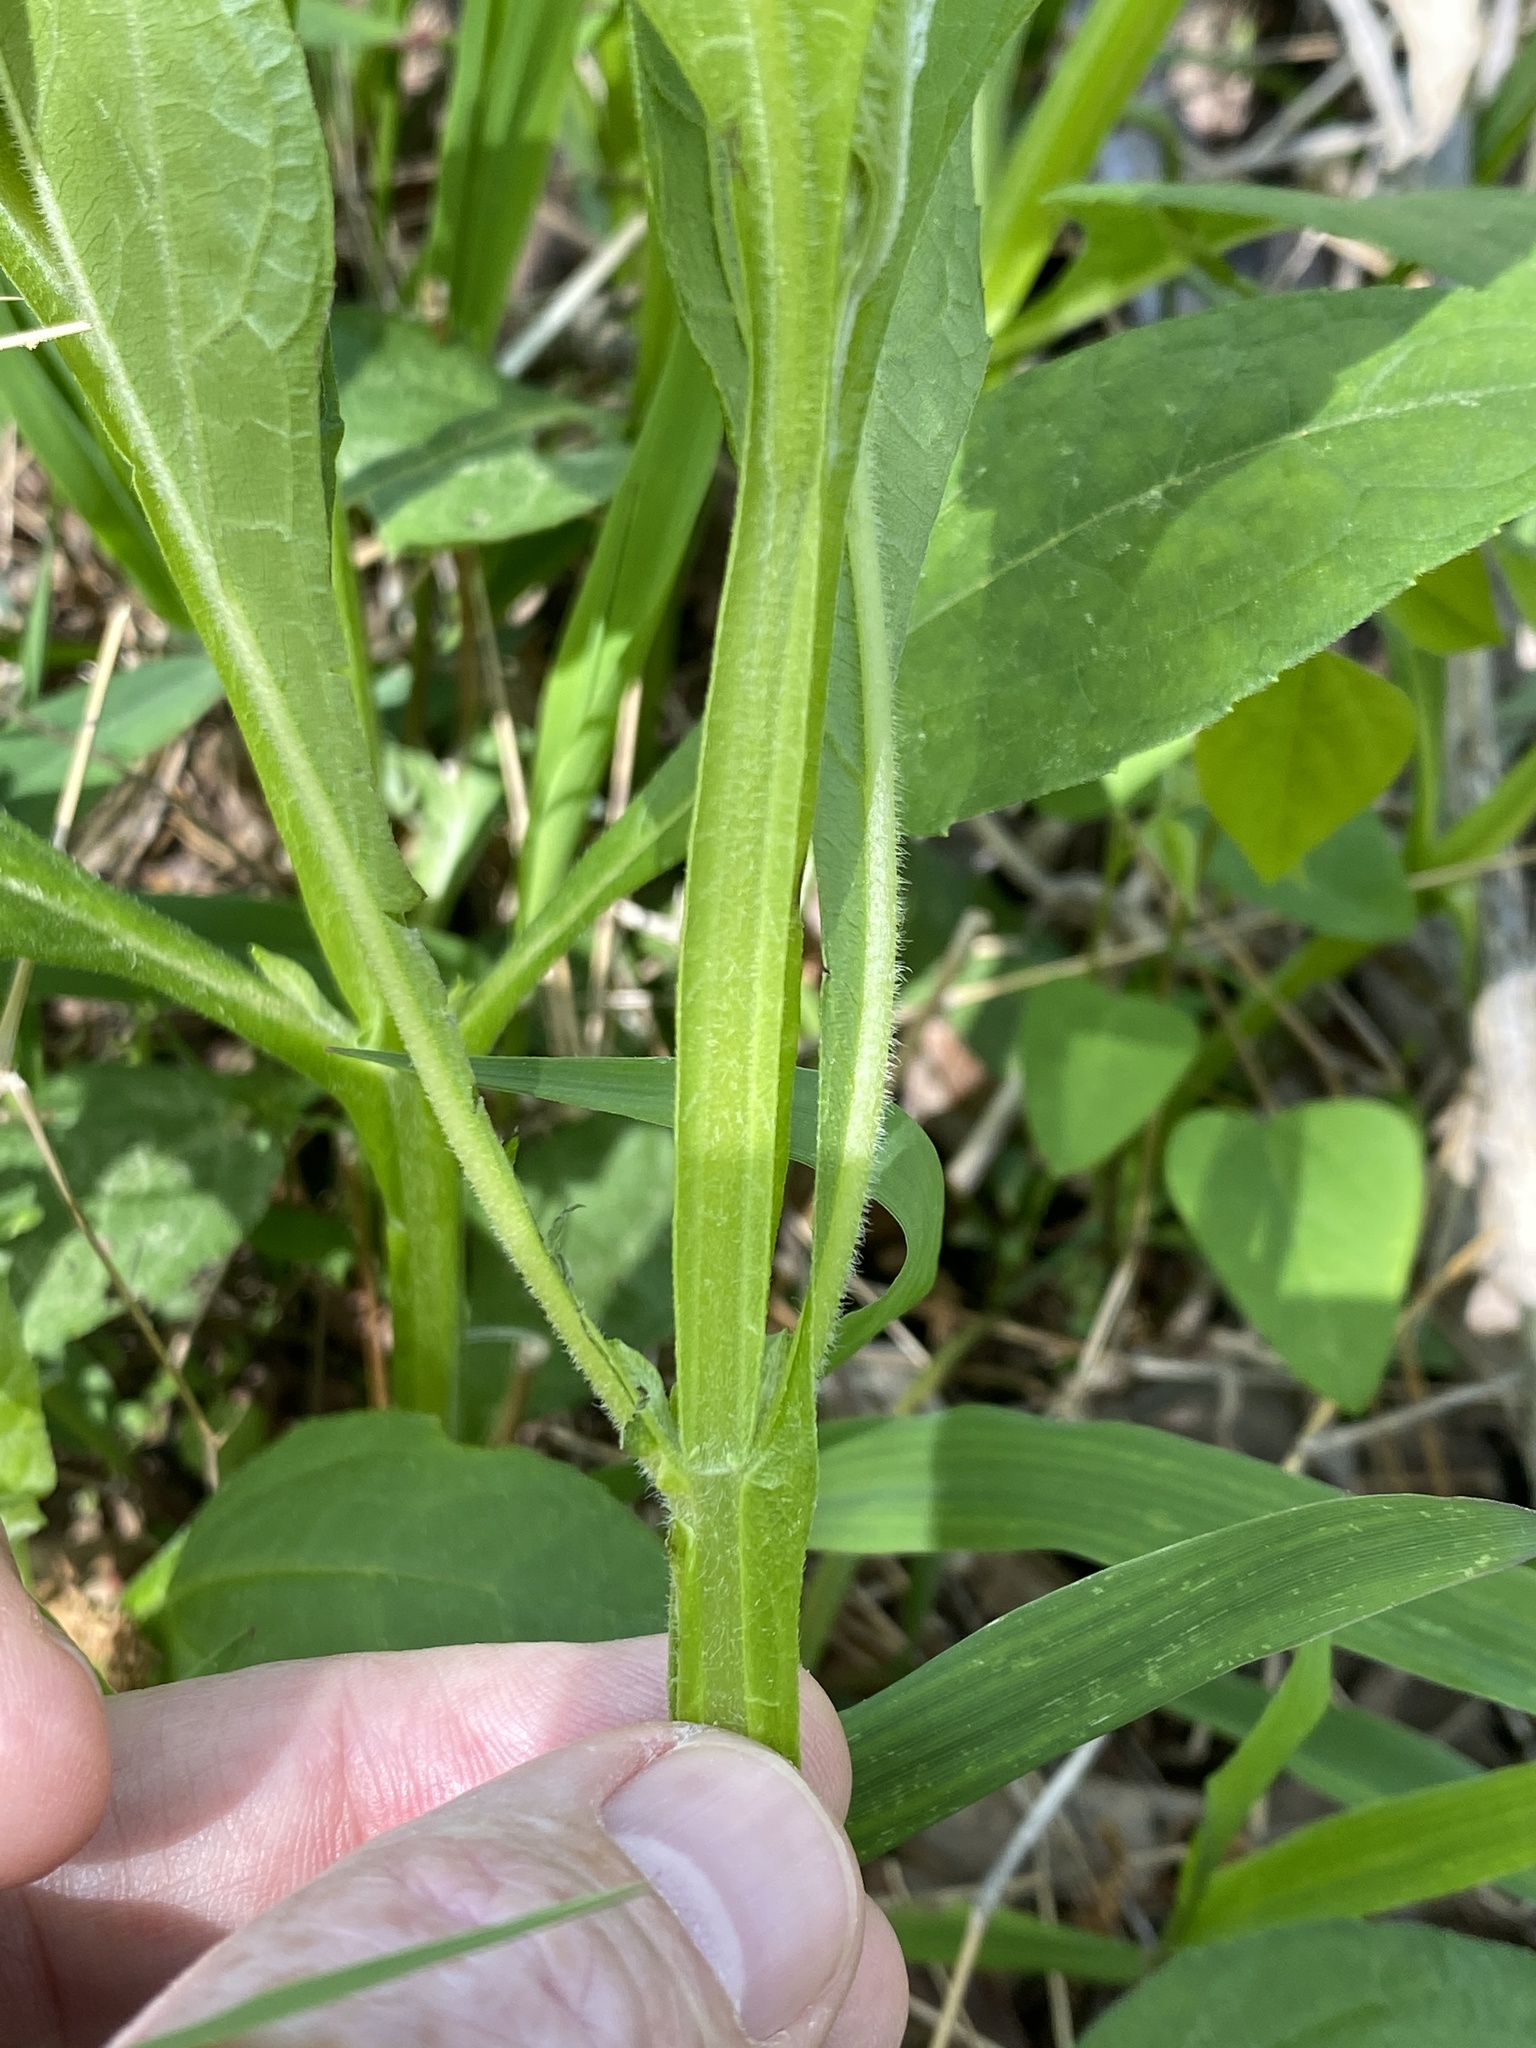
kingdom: Plantae
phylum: Tracheophyta
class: Magnoliopsida
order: Asterales
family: Asteraceae
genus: Verbesina
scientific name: Verbesina occidentalis
